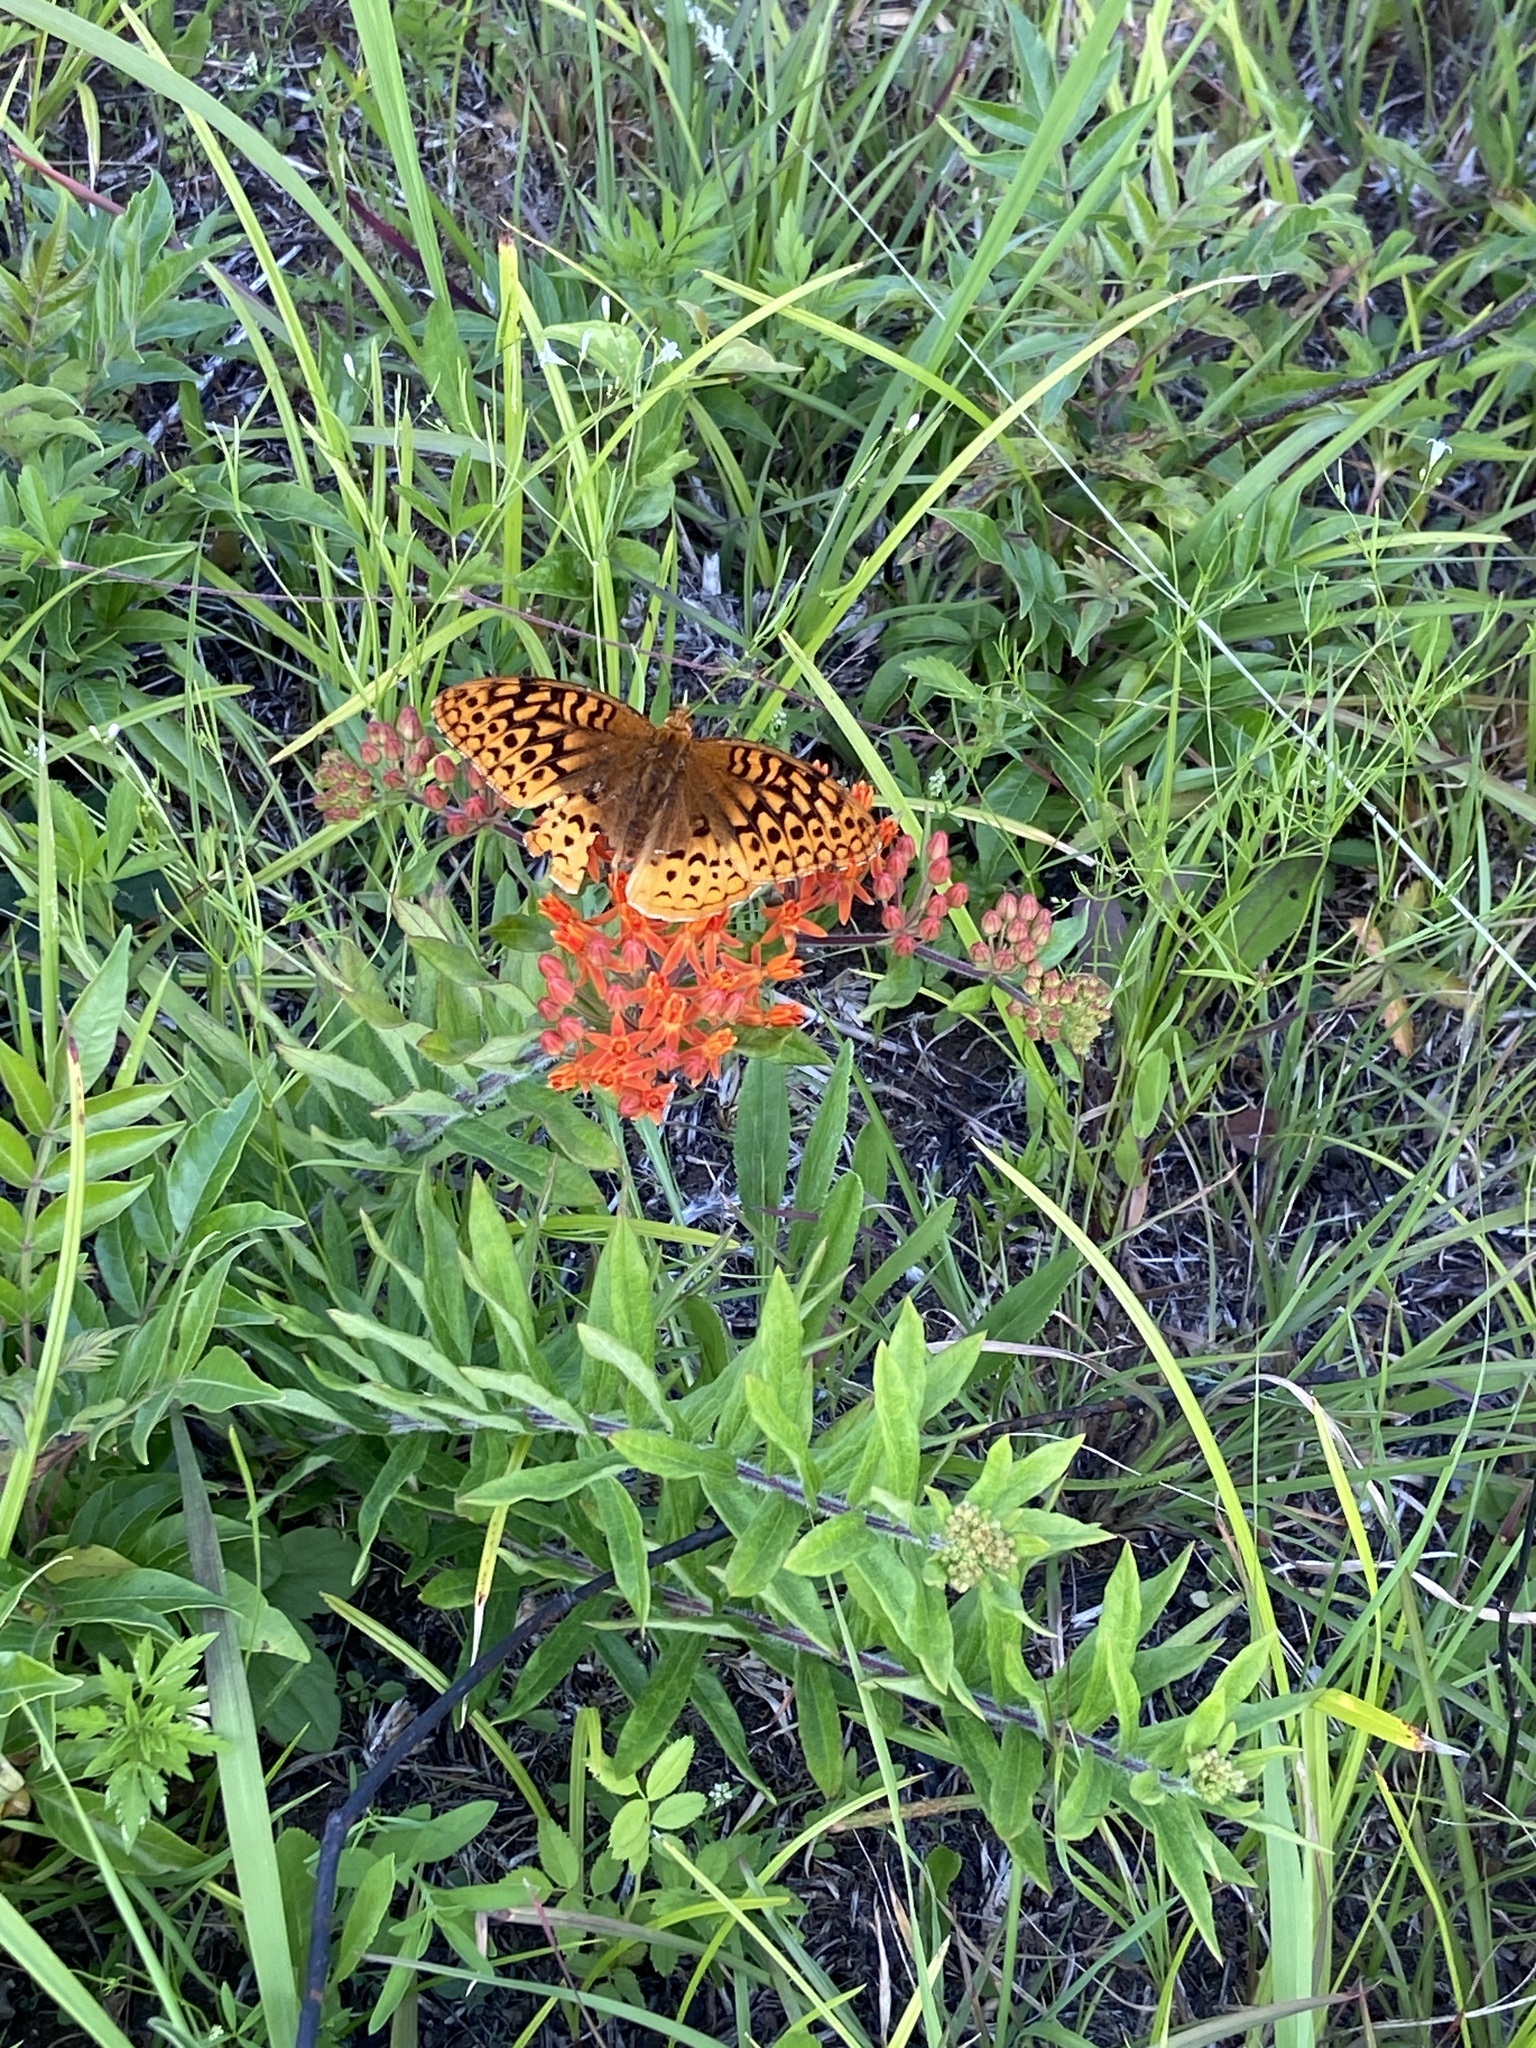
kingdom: Animalia
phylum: Arthropoda
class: Insecta
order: Lepidoptera
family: Nymphalidae
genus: Speyeria
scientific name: Speyeria cybele
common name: Great spangled fritillary
